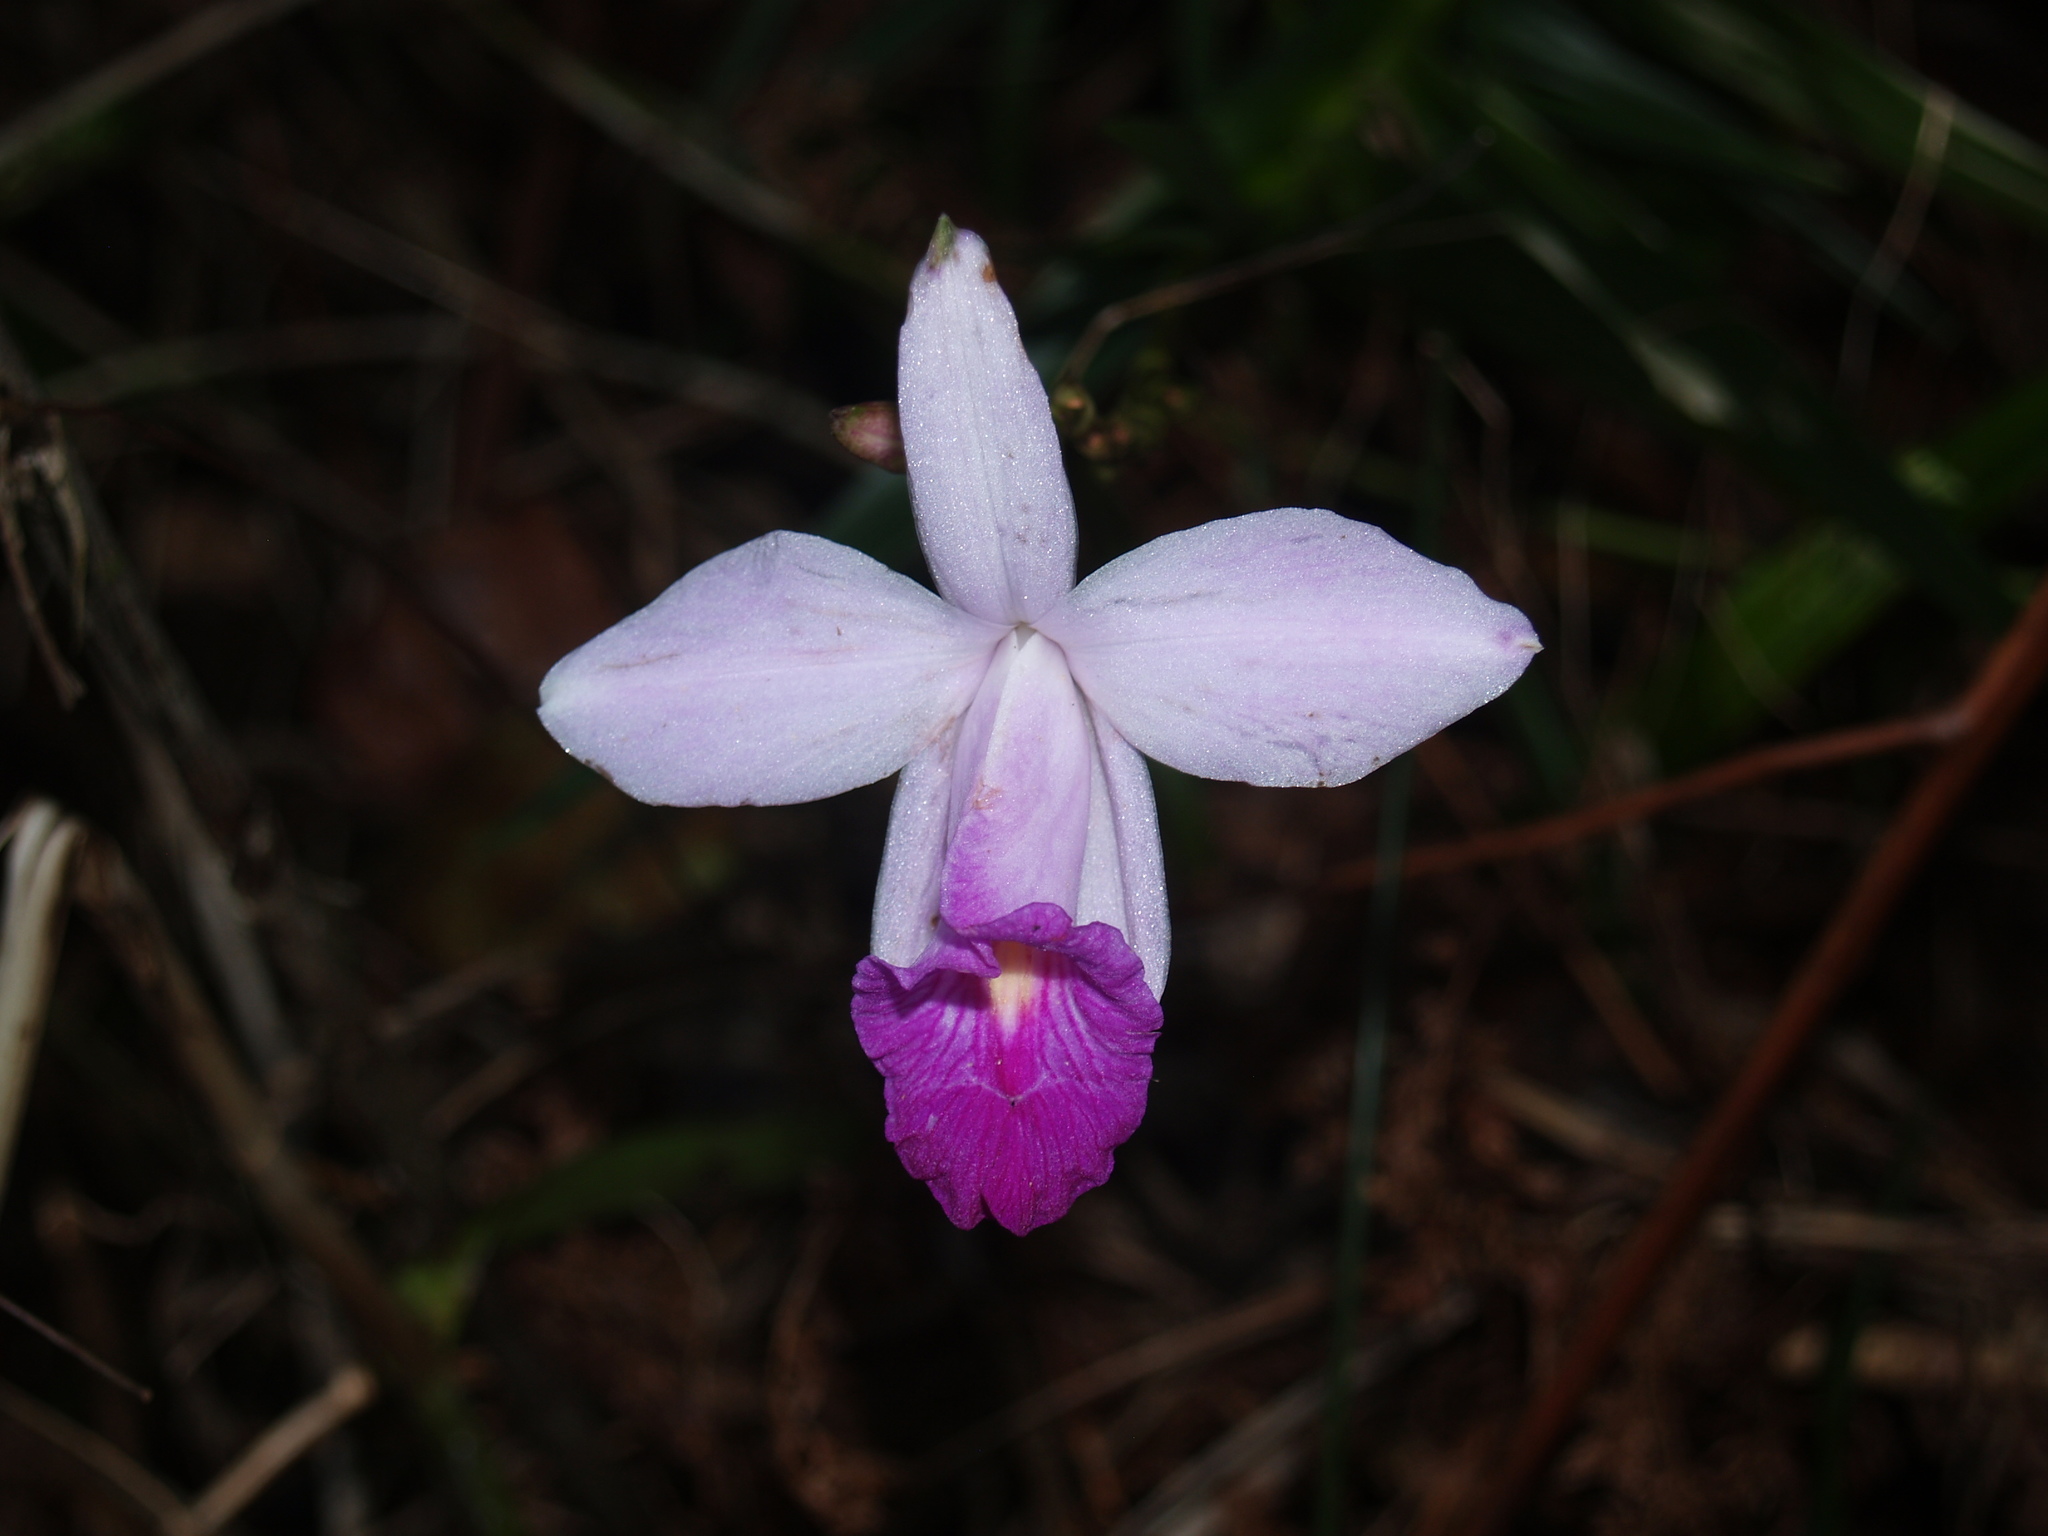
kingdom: Plantae
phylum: Tracheophyta
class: Liliopsida
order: Asparagales
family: Orchidaceae
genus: Arundina
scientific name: Arundina graminifolia
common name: Bamboo orchid
